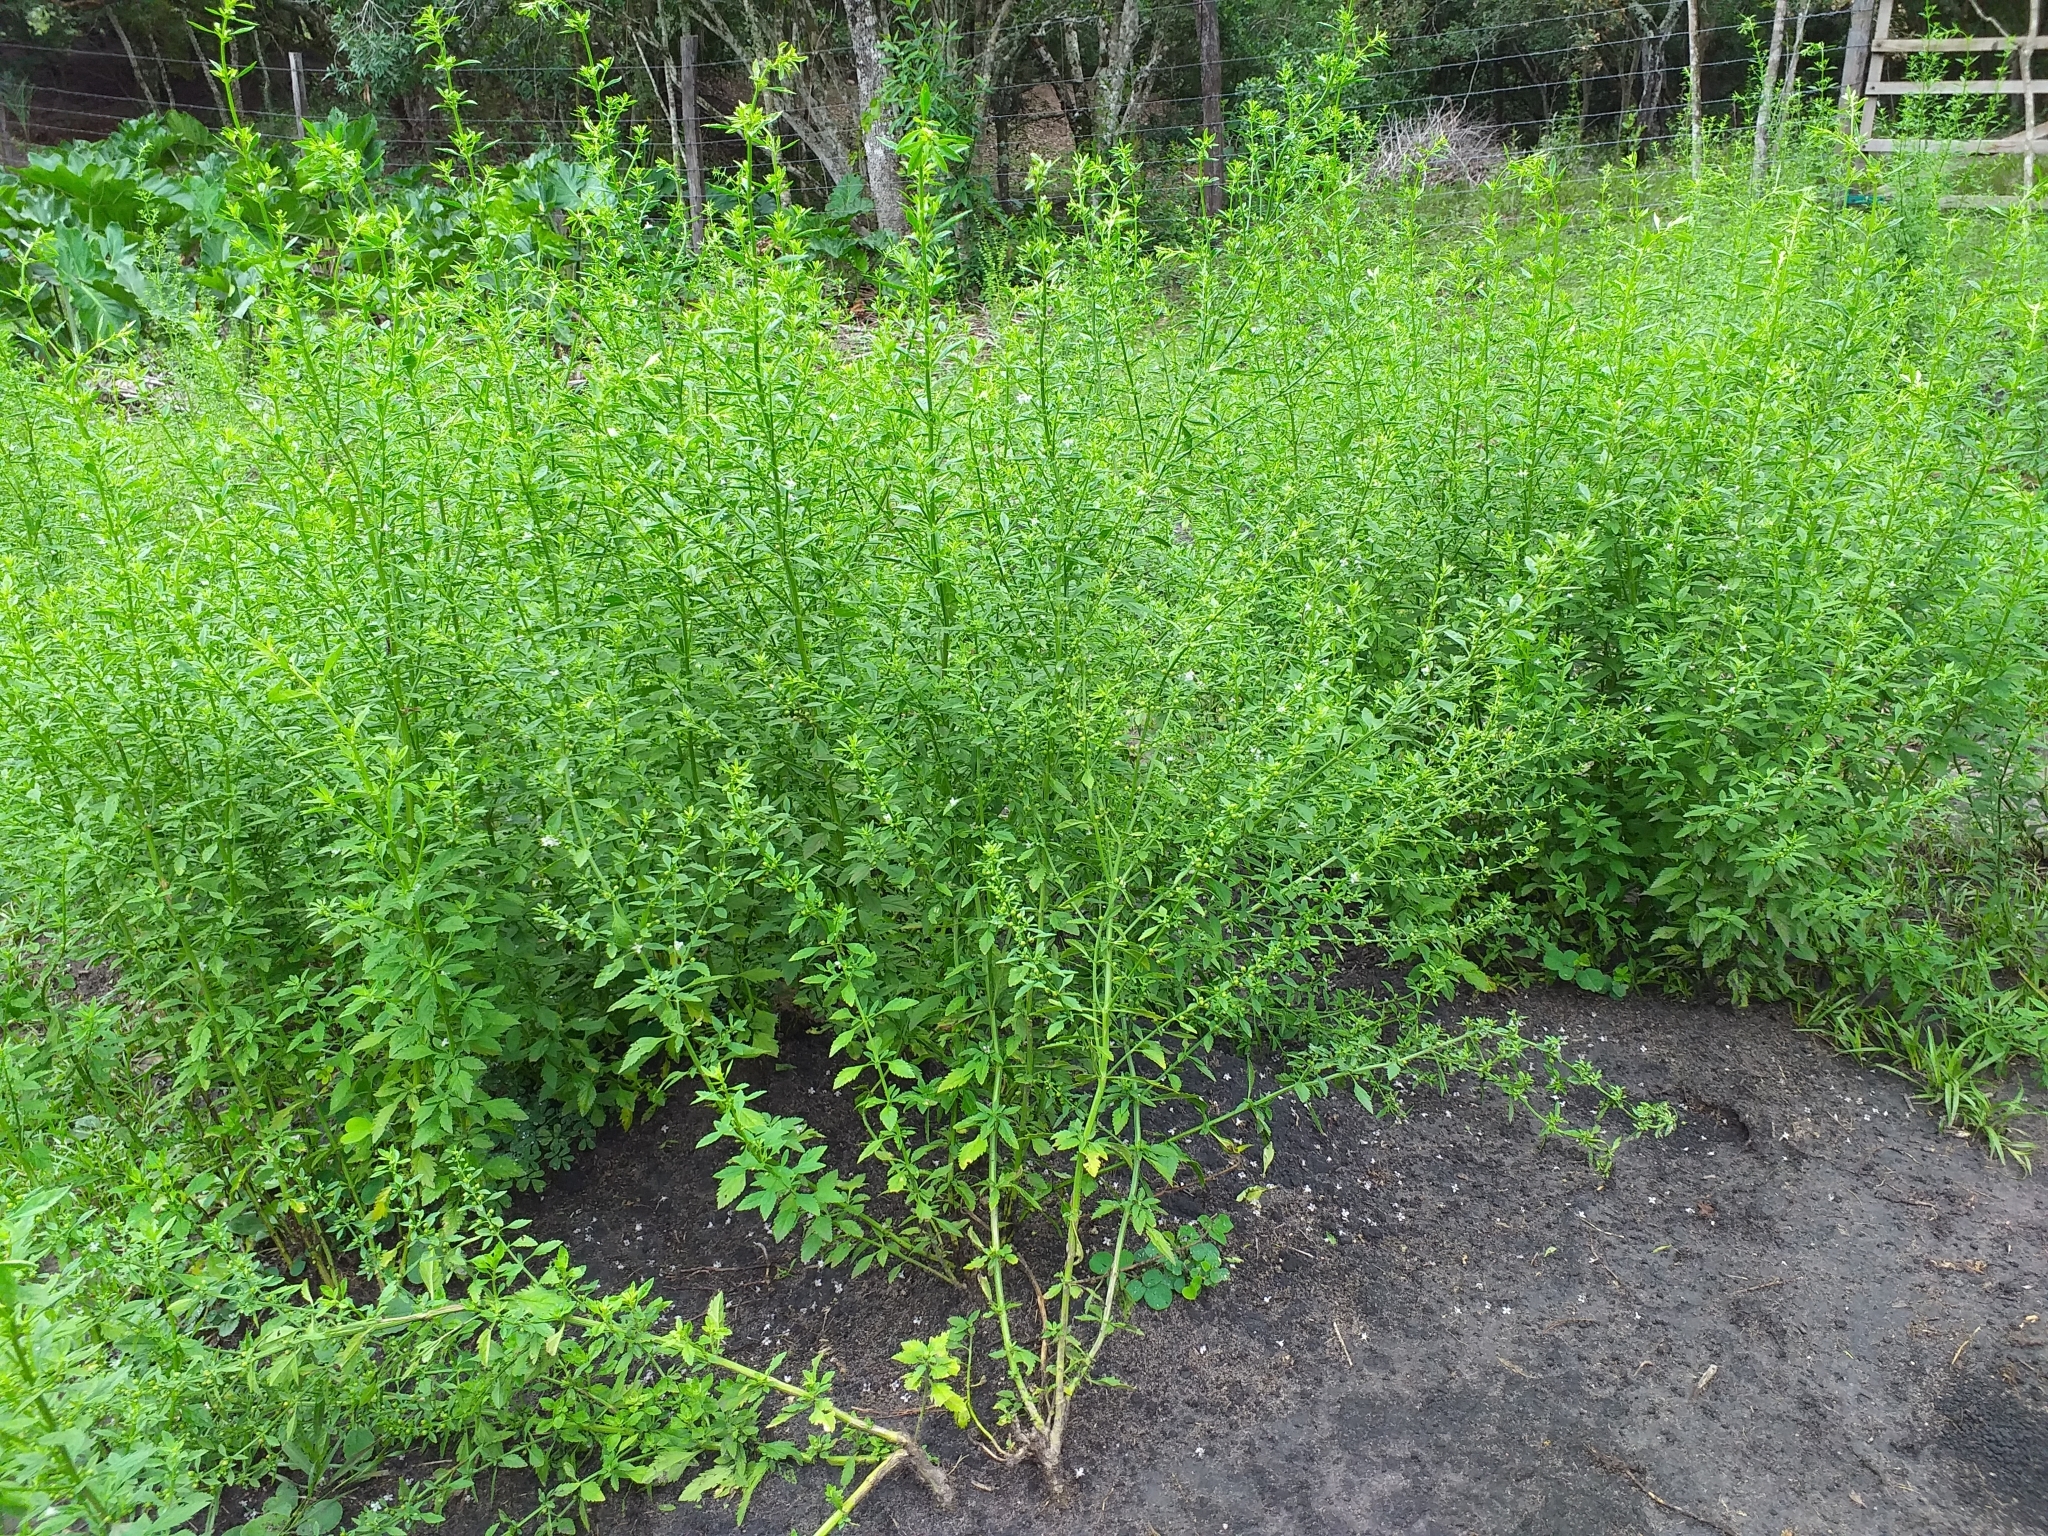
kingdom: Plantae
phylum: Tracheophyta
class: Magnoliopsida
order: Lamiales
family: Plantaginaceae
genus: Scoparia
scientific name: Scoparia dulcis
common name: Scoparia-weed
